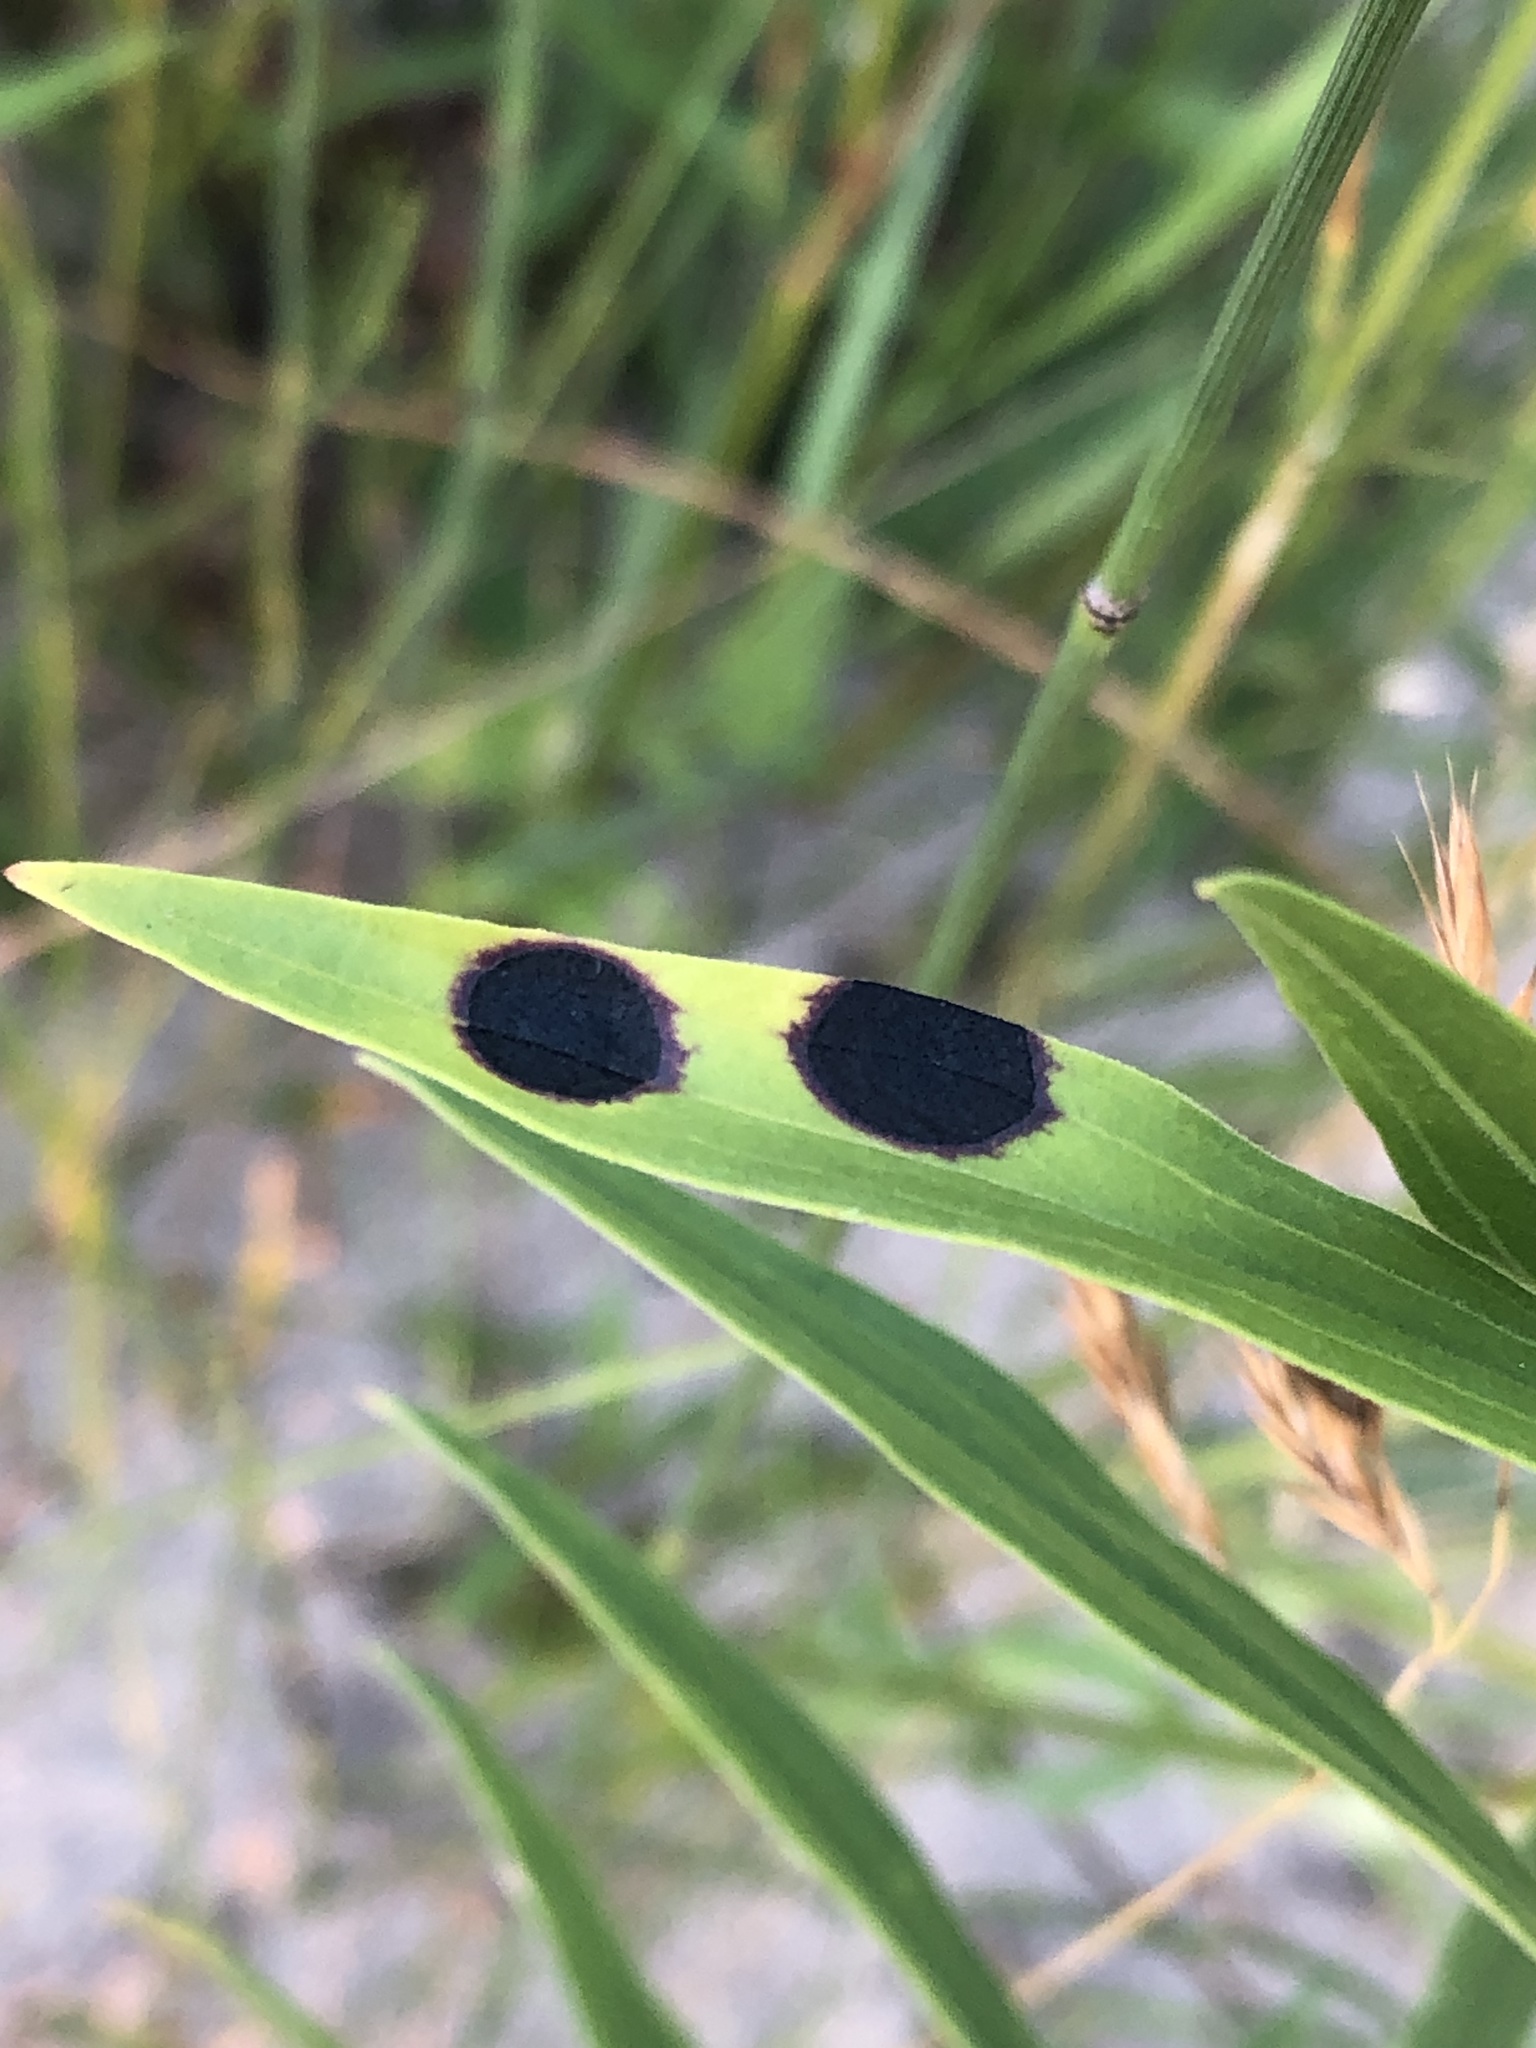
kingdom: Animalia
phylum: Arthropoda
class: Insecta
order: Diptera
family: Cecidomyiidae
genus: Asteromyia
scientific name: Asteromyia euthamiae
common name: Euthamia leaf gall midge
